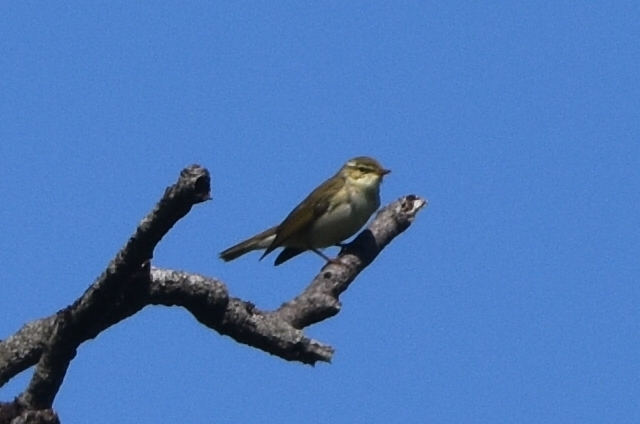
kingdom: Animalia
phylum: Chordata
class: Aves
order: Passeriformes
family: Phylloscopidae
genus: Phylloscopus
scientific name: Phylloscopus examinandus
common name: Kamchatka leaf warbler
